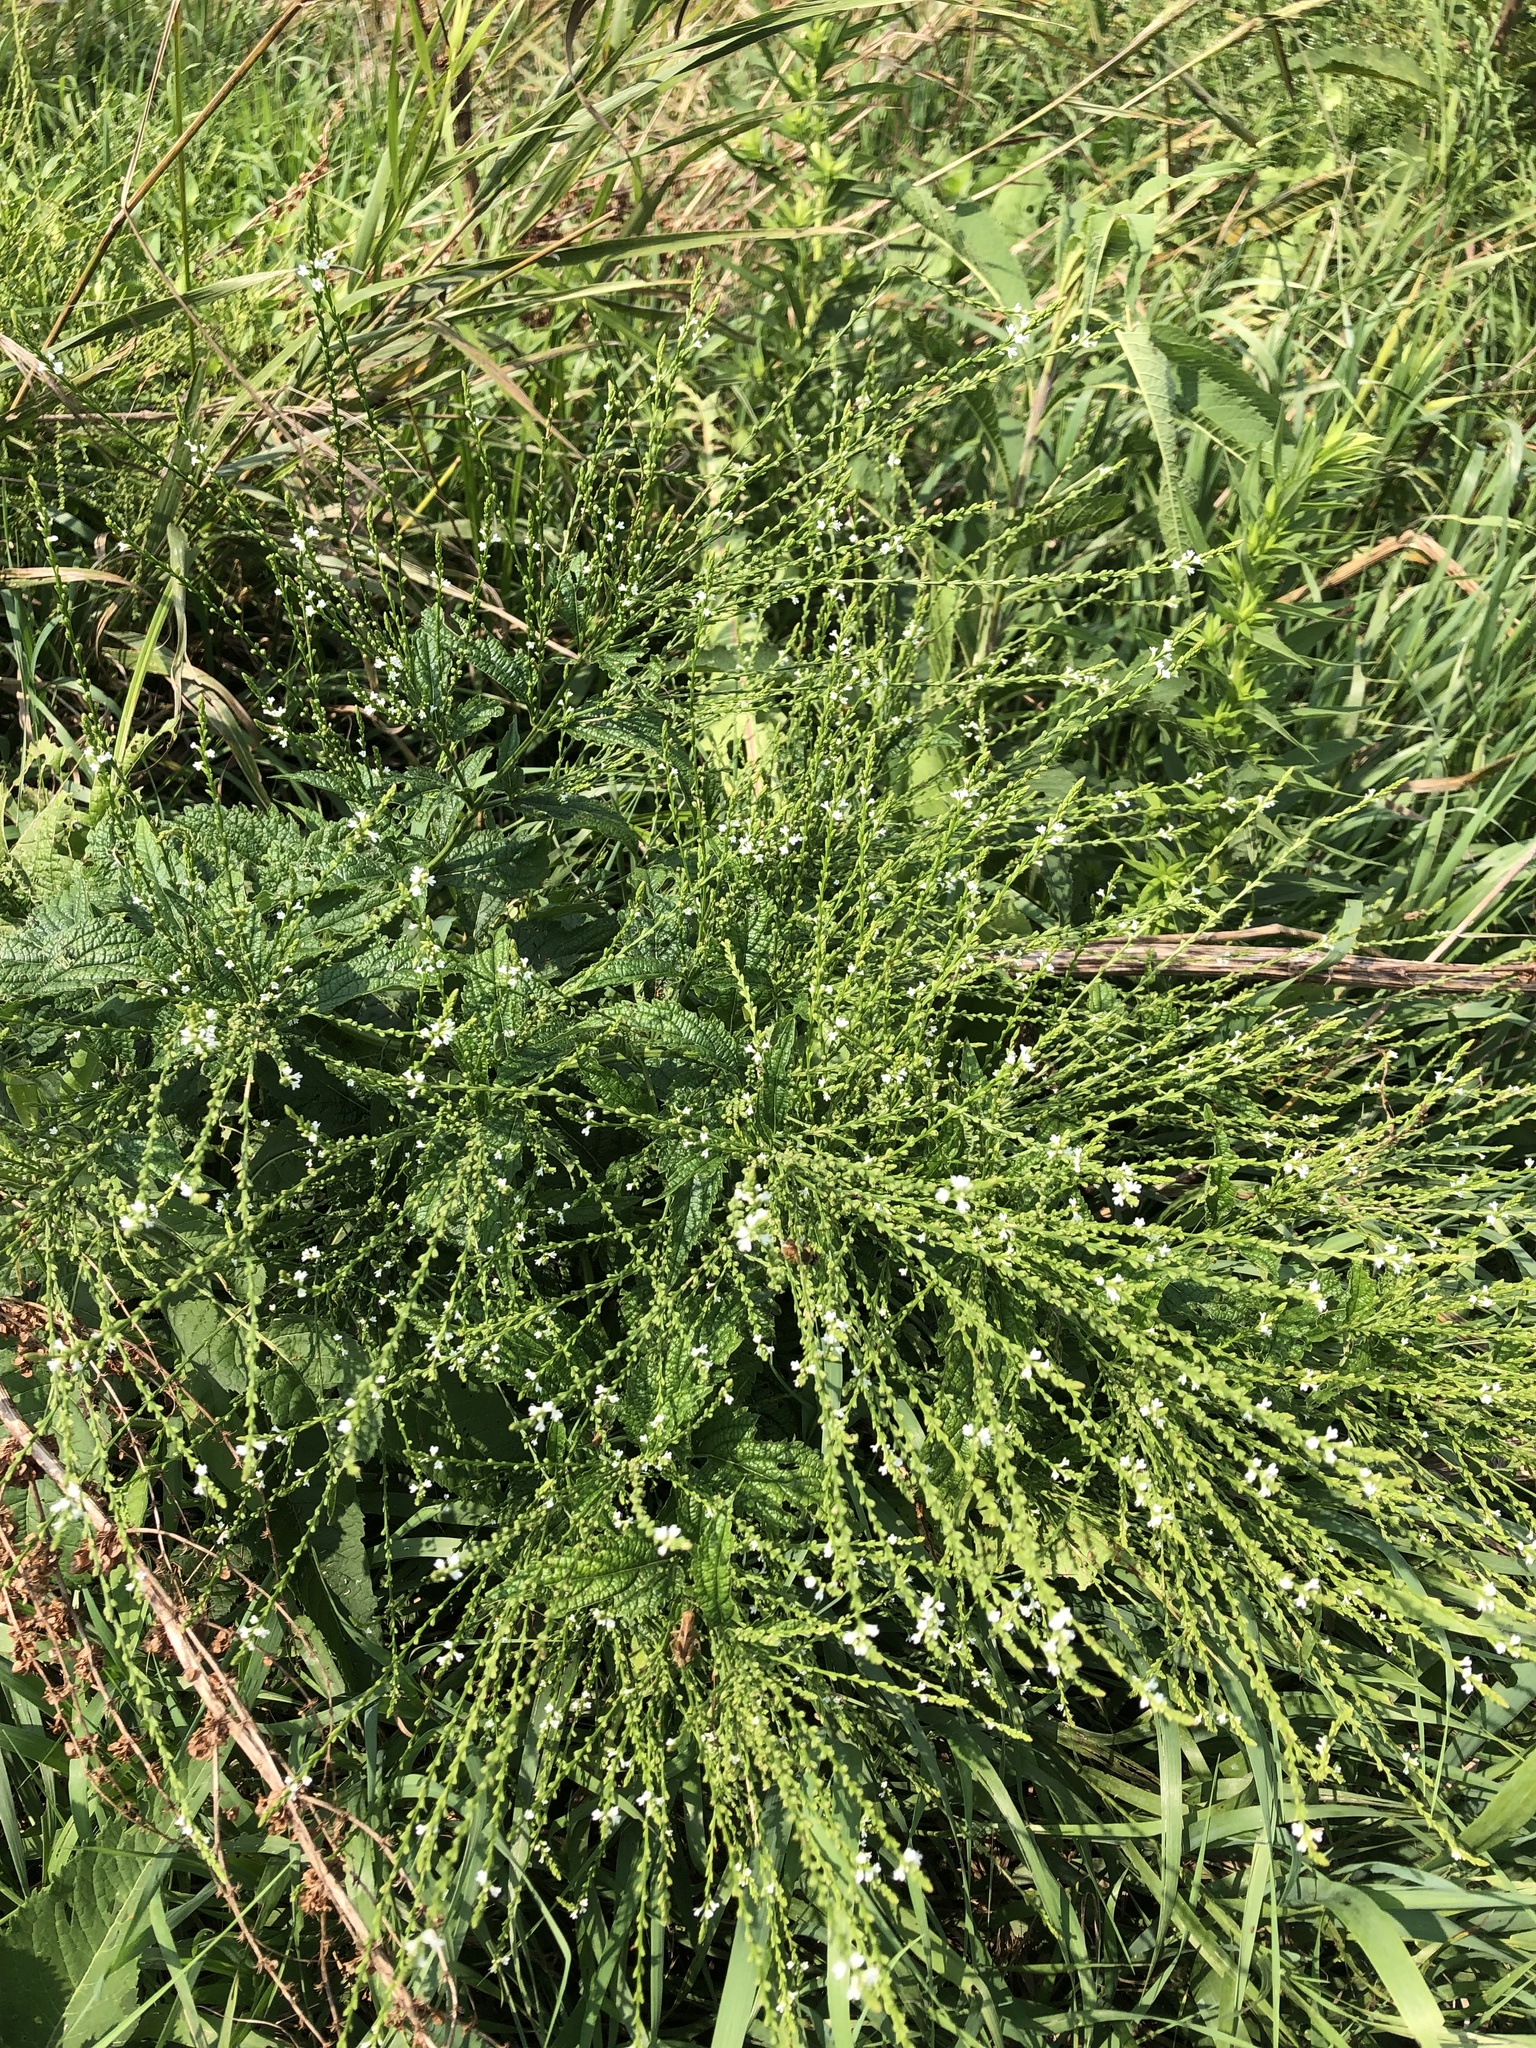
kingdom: Plantae
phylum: Tracheophyta
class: Magnoliopsida
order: Lamiales
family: Verbenaceae
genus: Verbena
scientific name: Verbena urticifolia
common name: Nettle-leaved vervain
